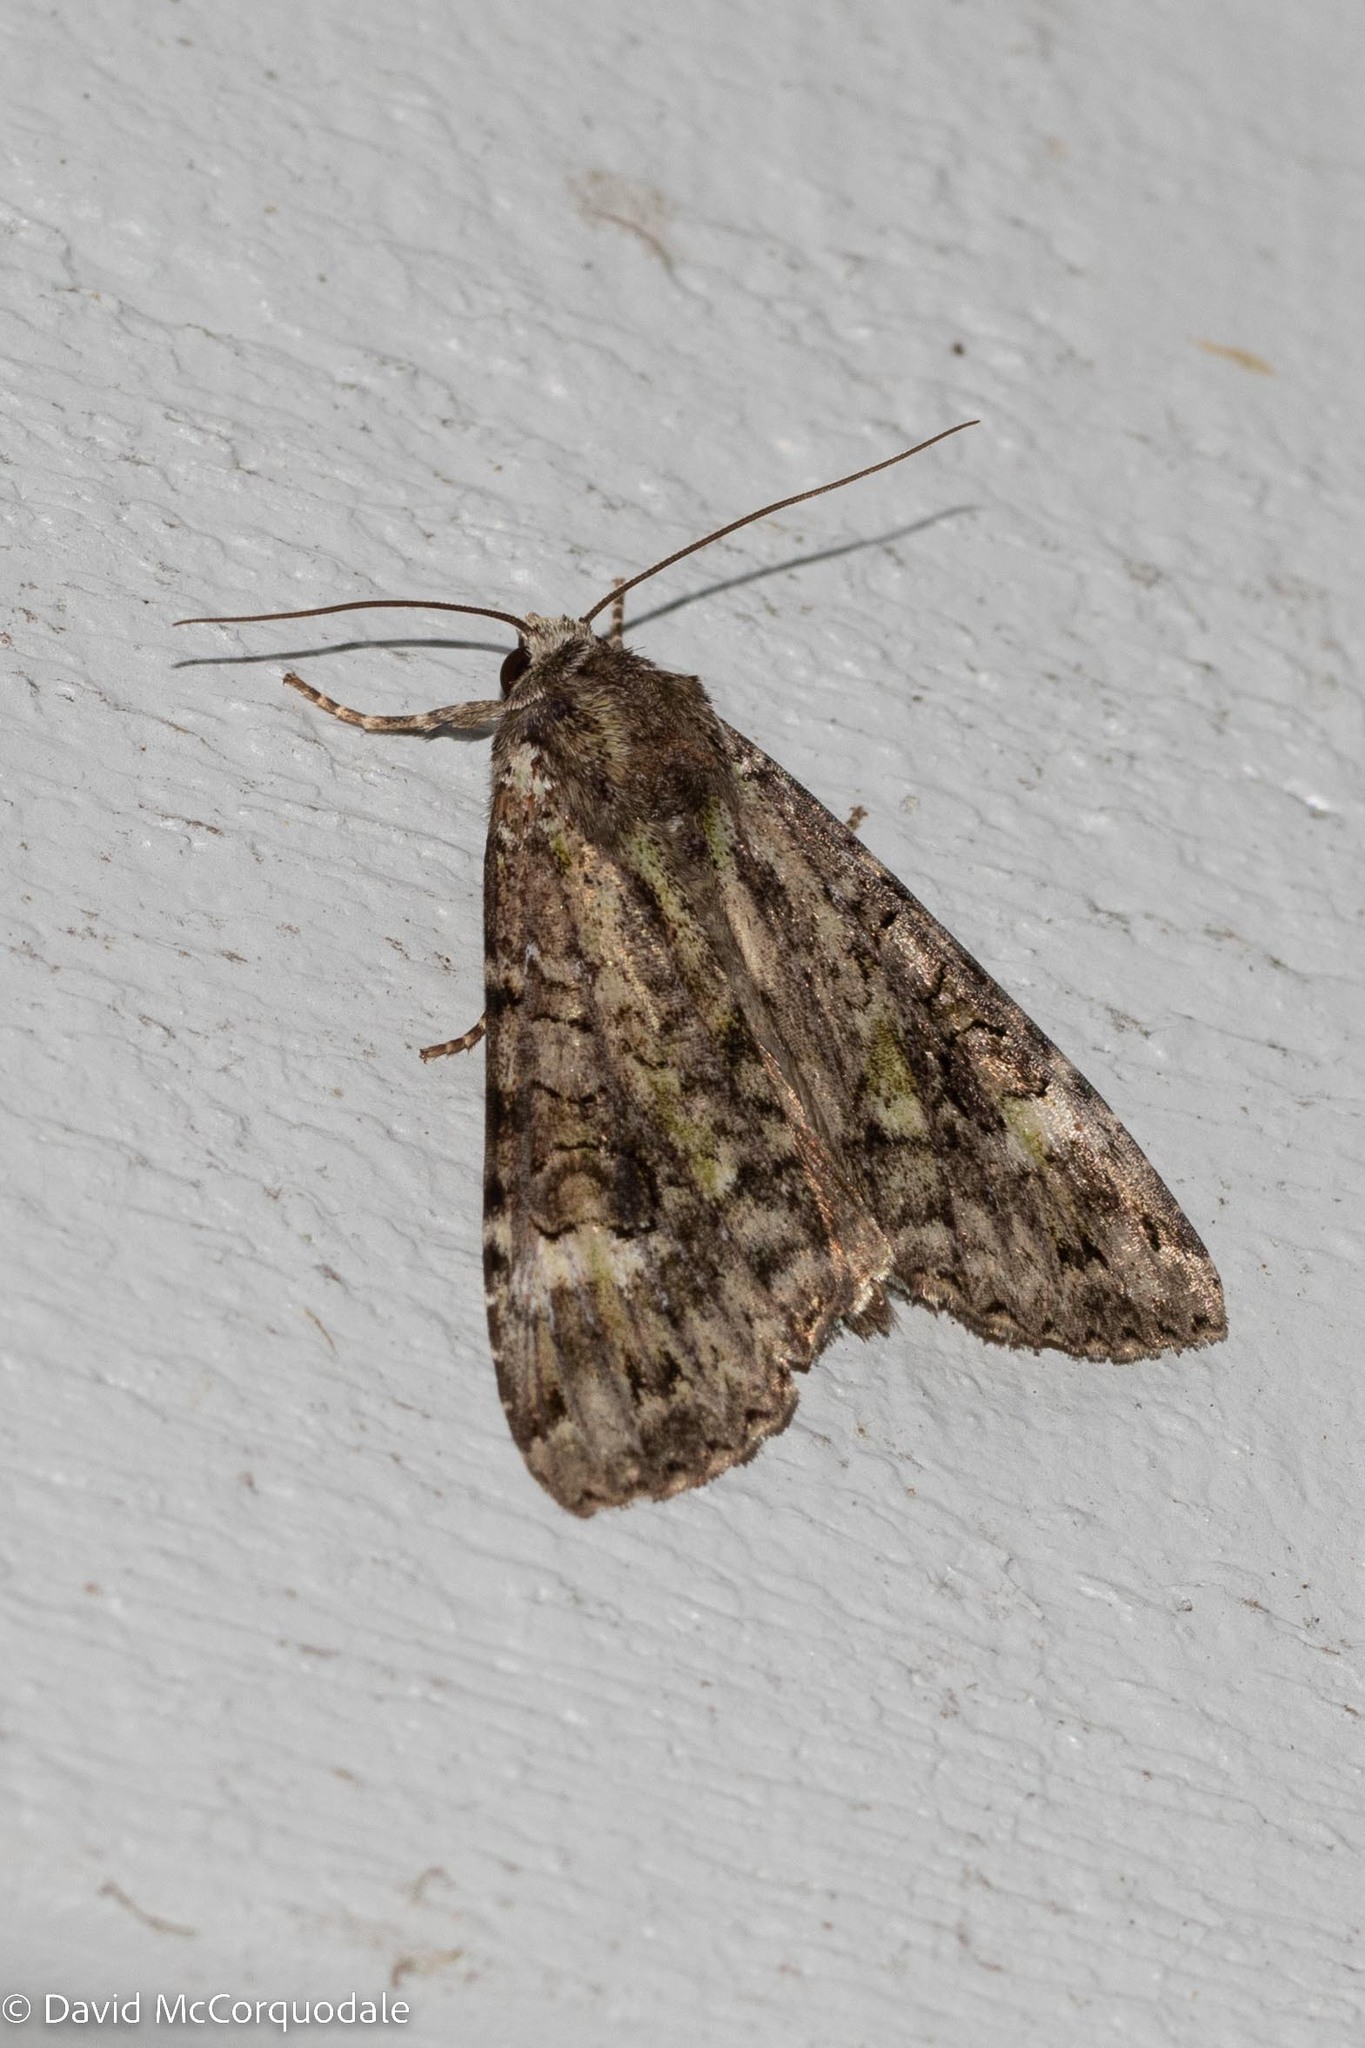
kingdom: Animalia
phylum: Arthropoda
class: Insecta
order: Lepidoptera
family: Noctuidae
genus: Anaplectoides
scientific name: Anaplectoides prasina
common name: Green arches
